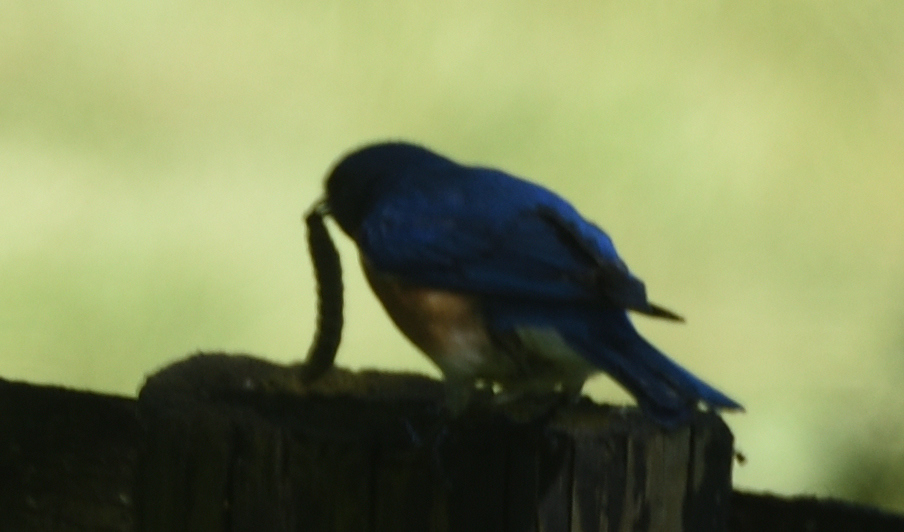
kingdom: Animalia
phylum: Chordata
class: Aves
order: Passeriformes
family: Turdidae
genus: Sialia
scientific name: Sialia sialis
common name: Eastern bluebird
